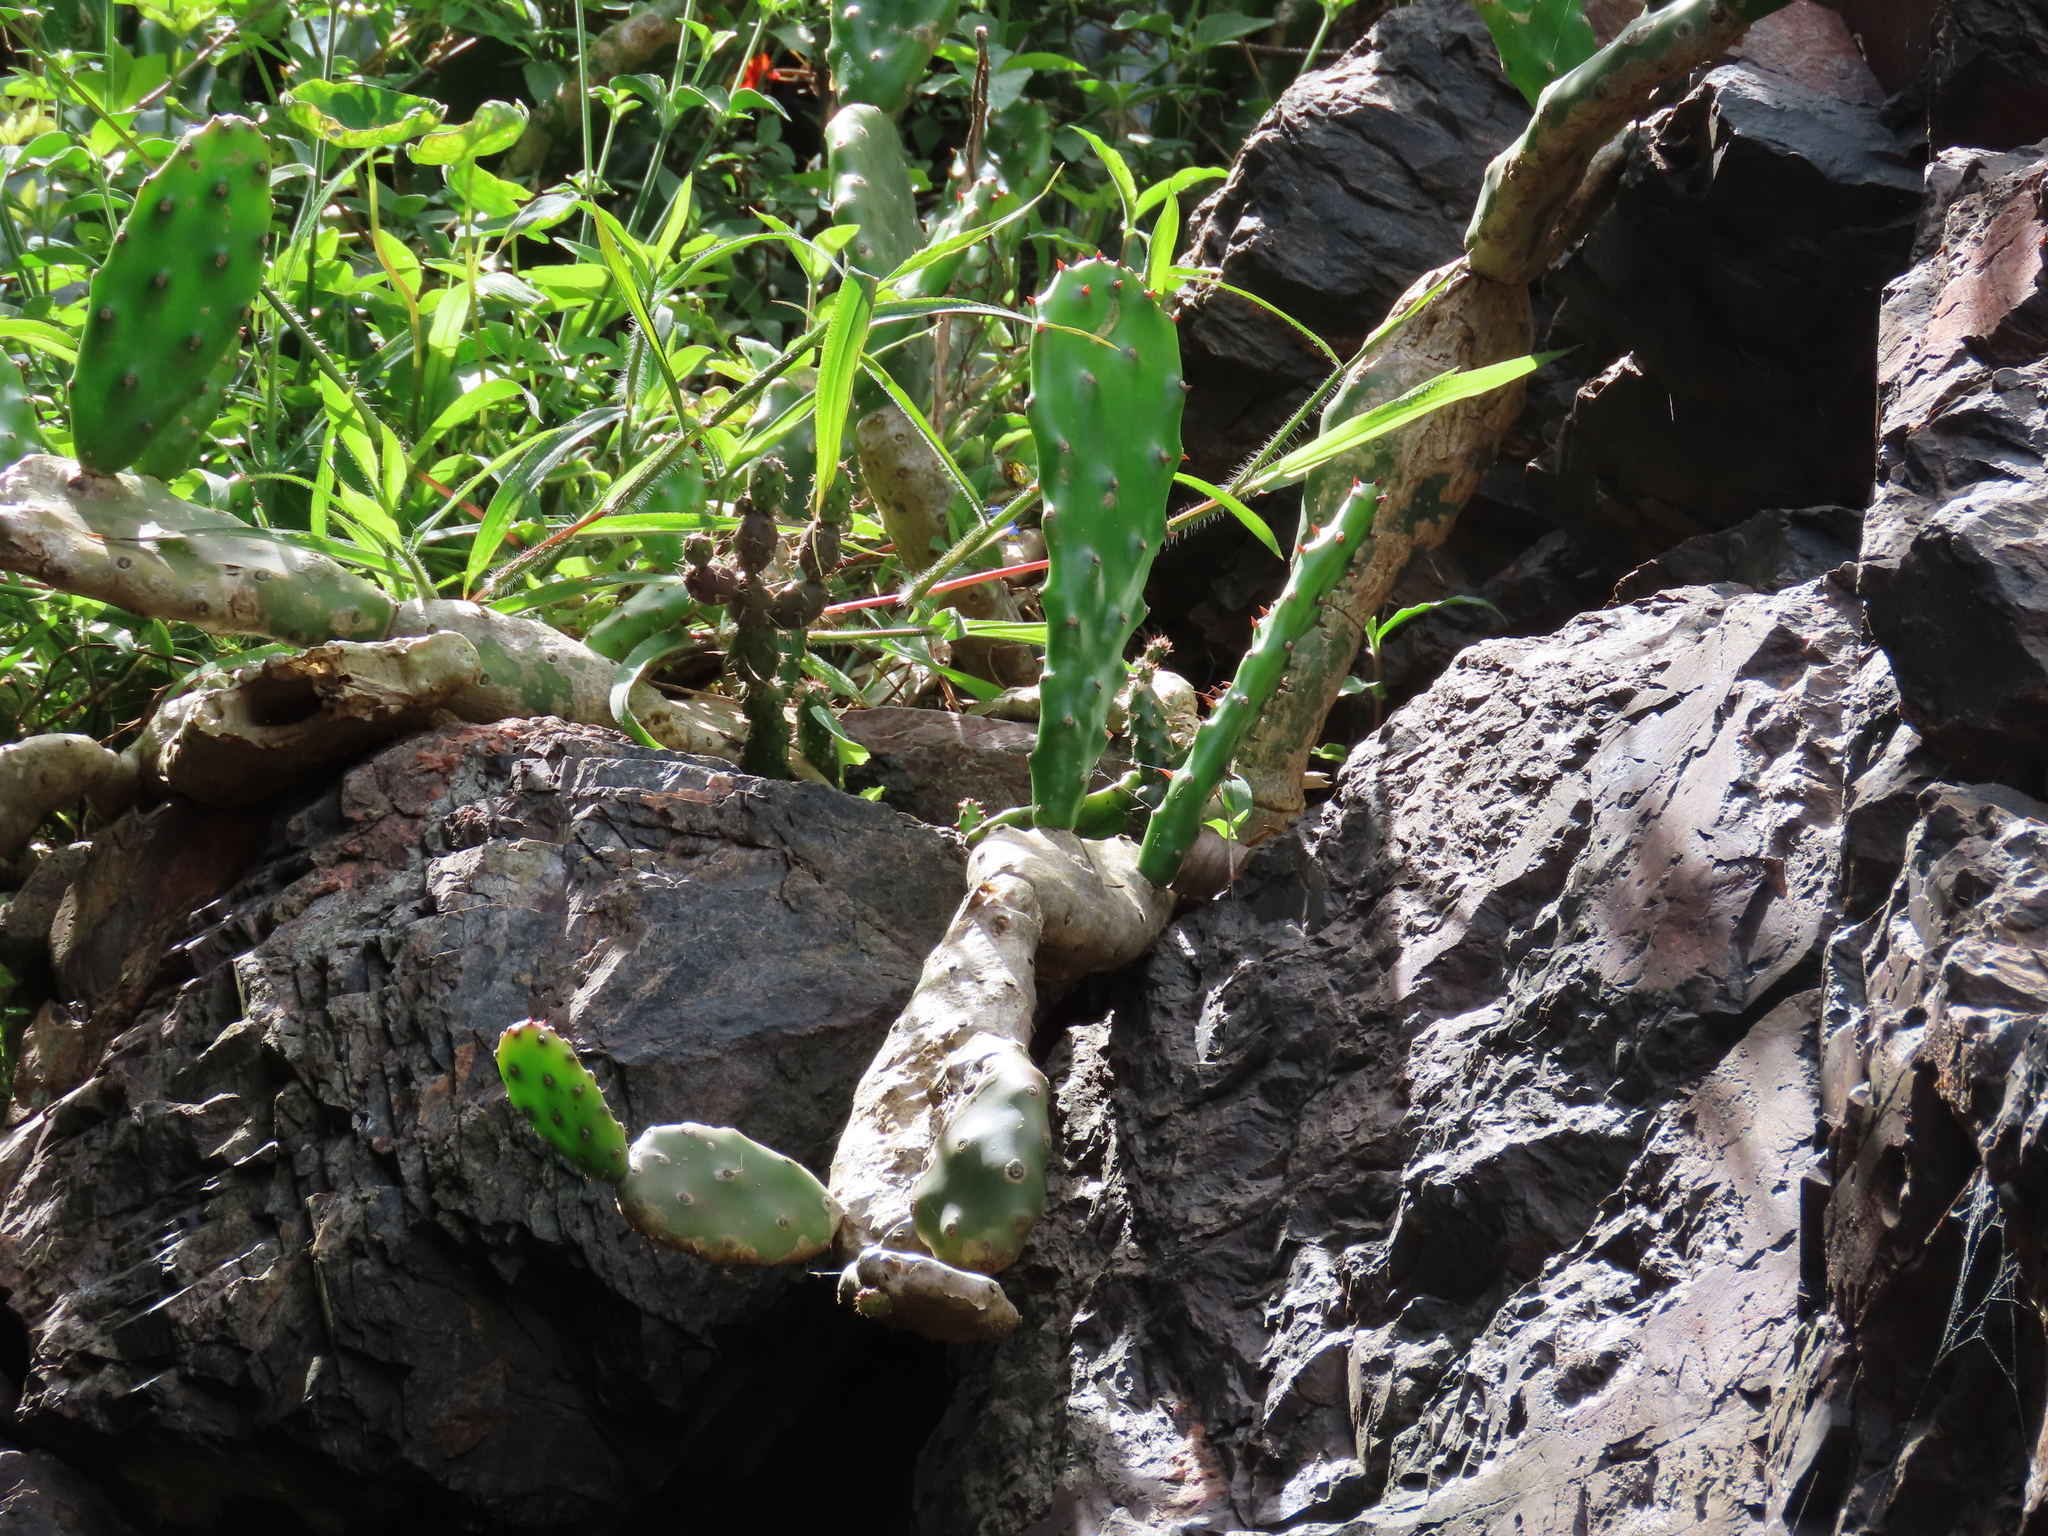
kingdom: Plantae
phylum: Tracheophyta
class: Magnoliopsida
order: Caryophyllales
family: Cactaceae
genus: Opuntia
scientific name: Opuntia arechavaletae
